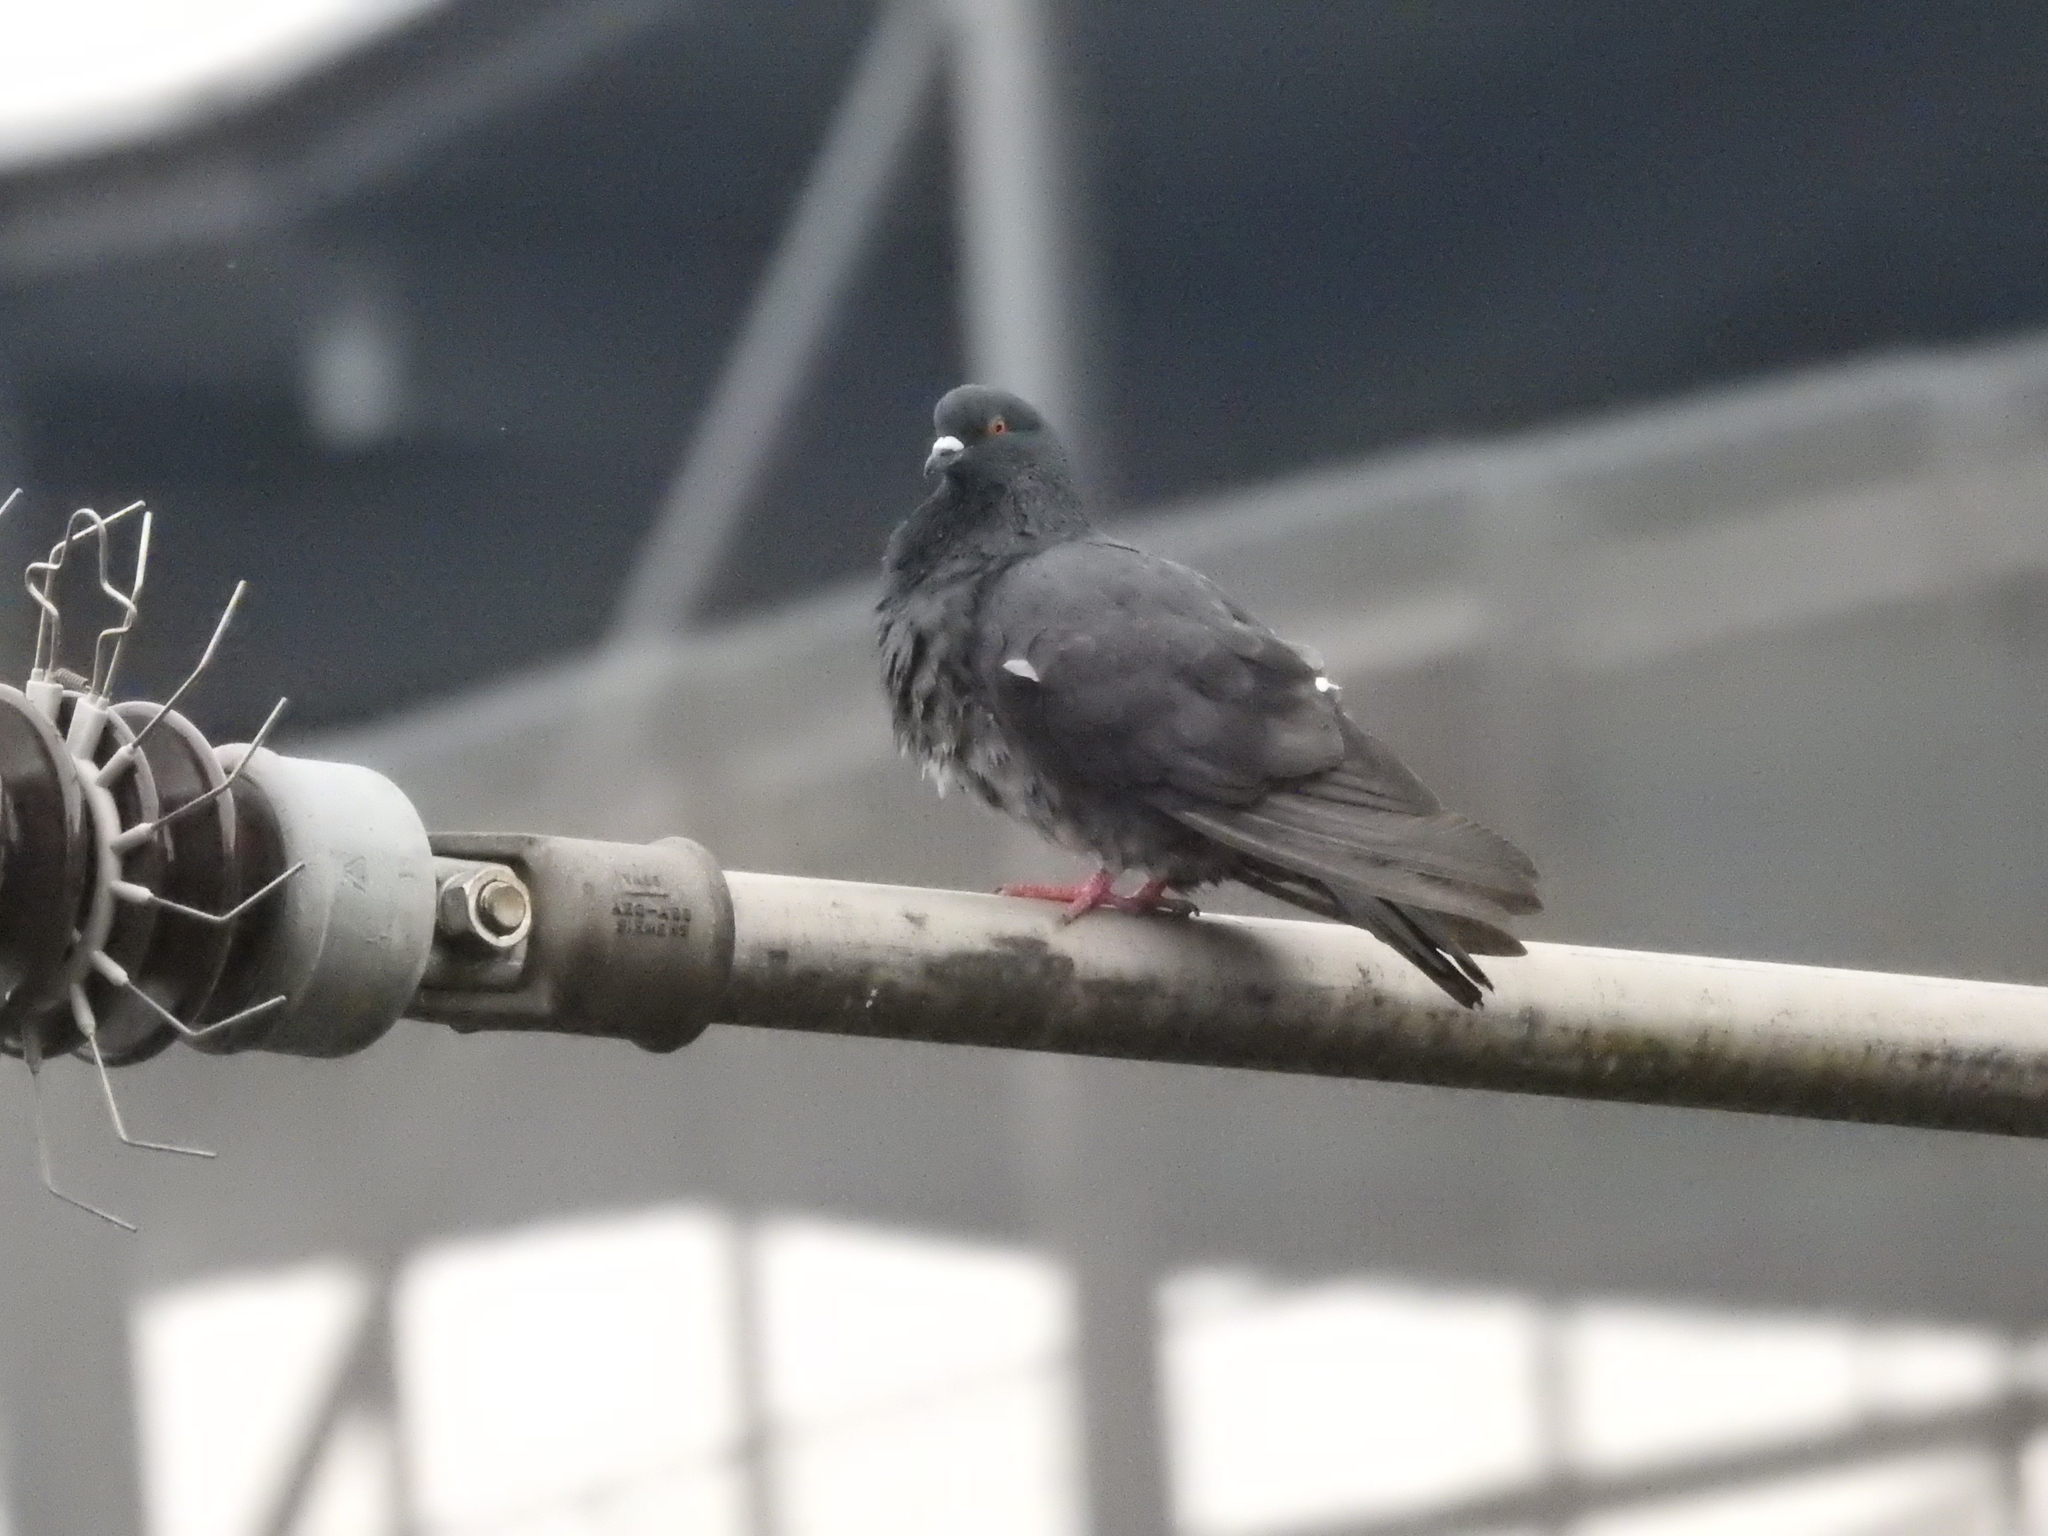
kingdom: Animalia
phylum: Chordata
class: Aves
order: Columbiformes
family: Columbidae
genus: Columba
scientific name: Columba livia
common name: Rock pigeon
